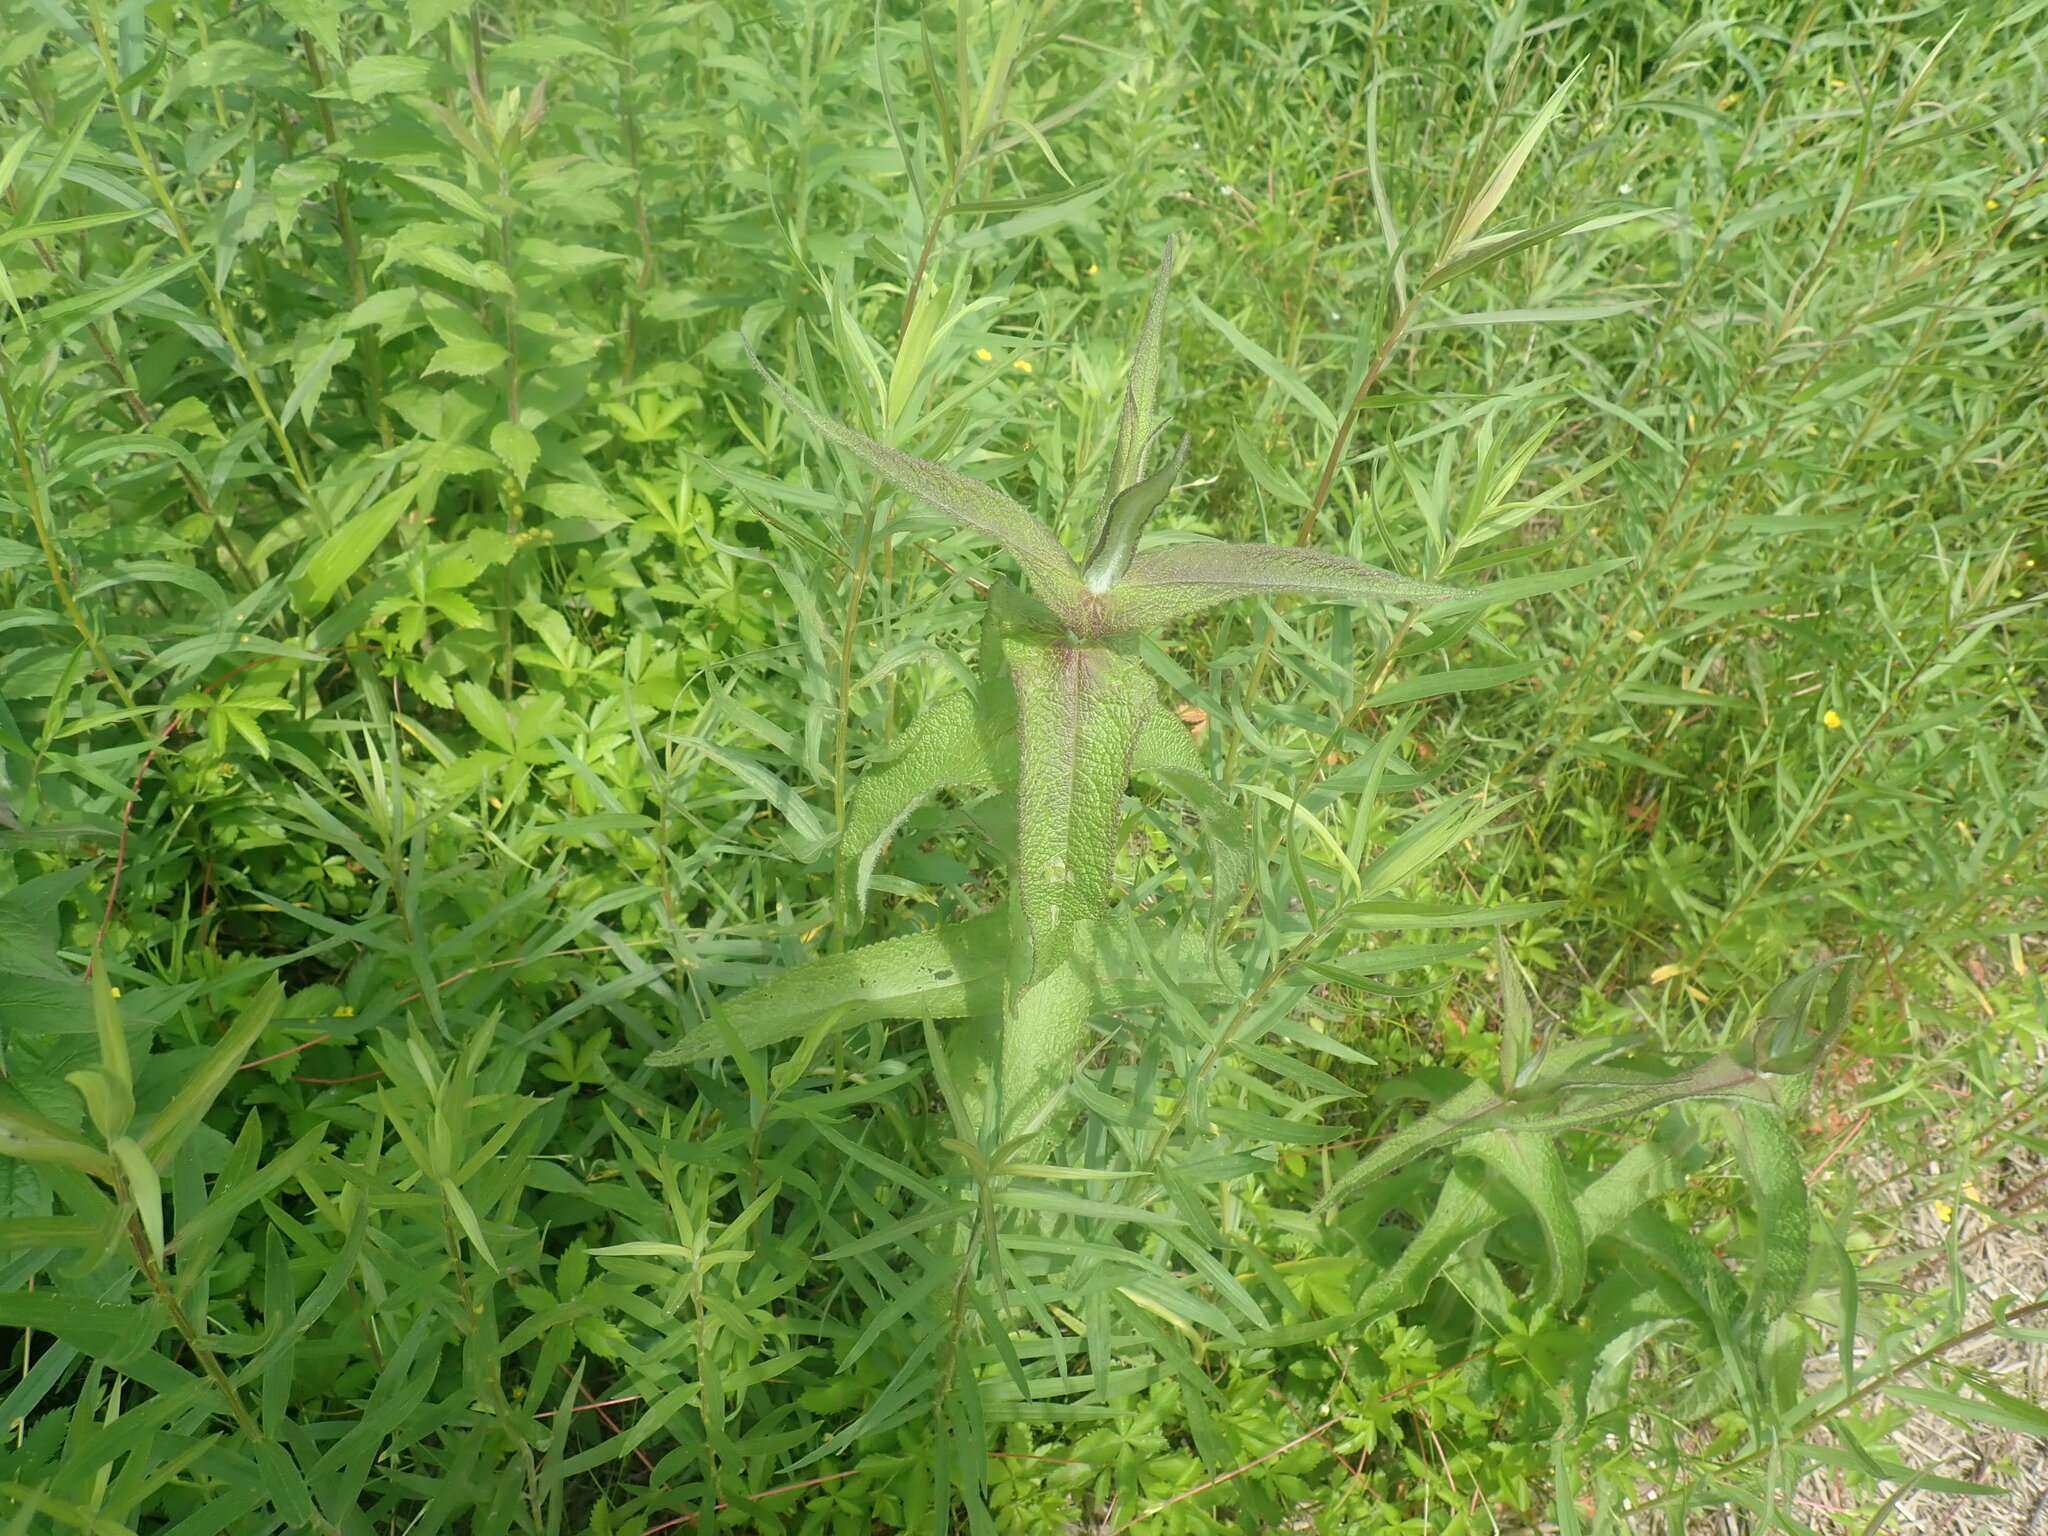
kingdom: Plantae
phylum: Tracheophyta
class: Magnoliopsida
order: Asterales
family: Asteraceae
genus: Eupatorium
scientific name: Eupatorium perfoliatum
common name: Boneset
